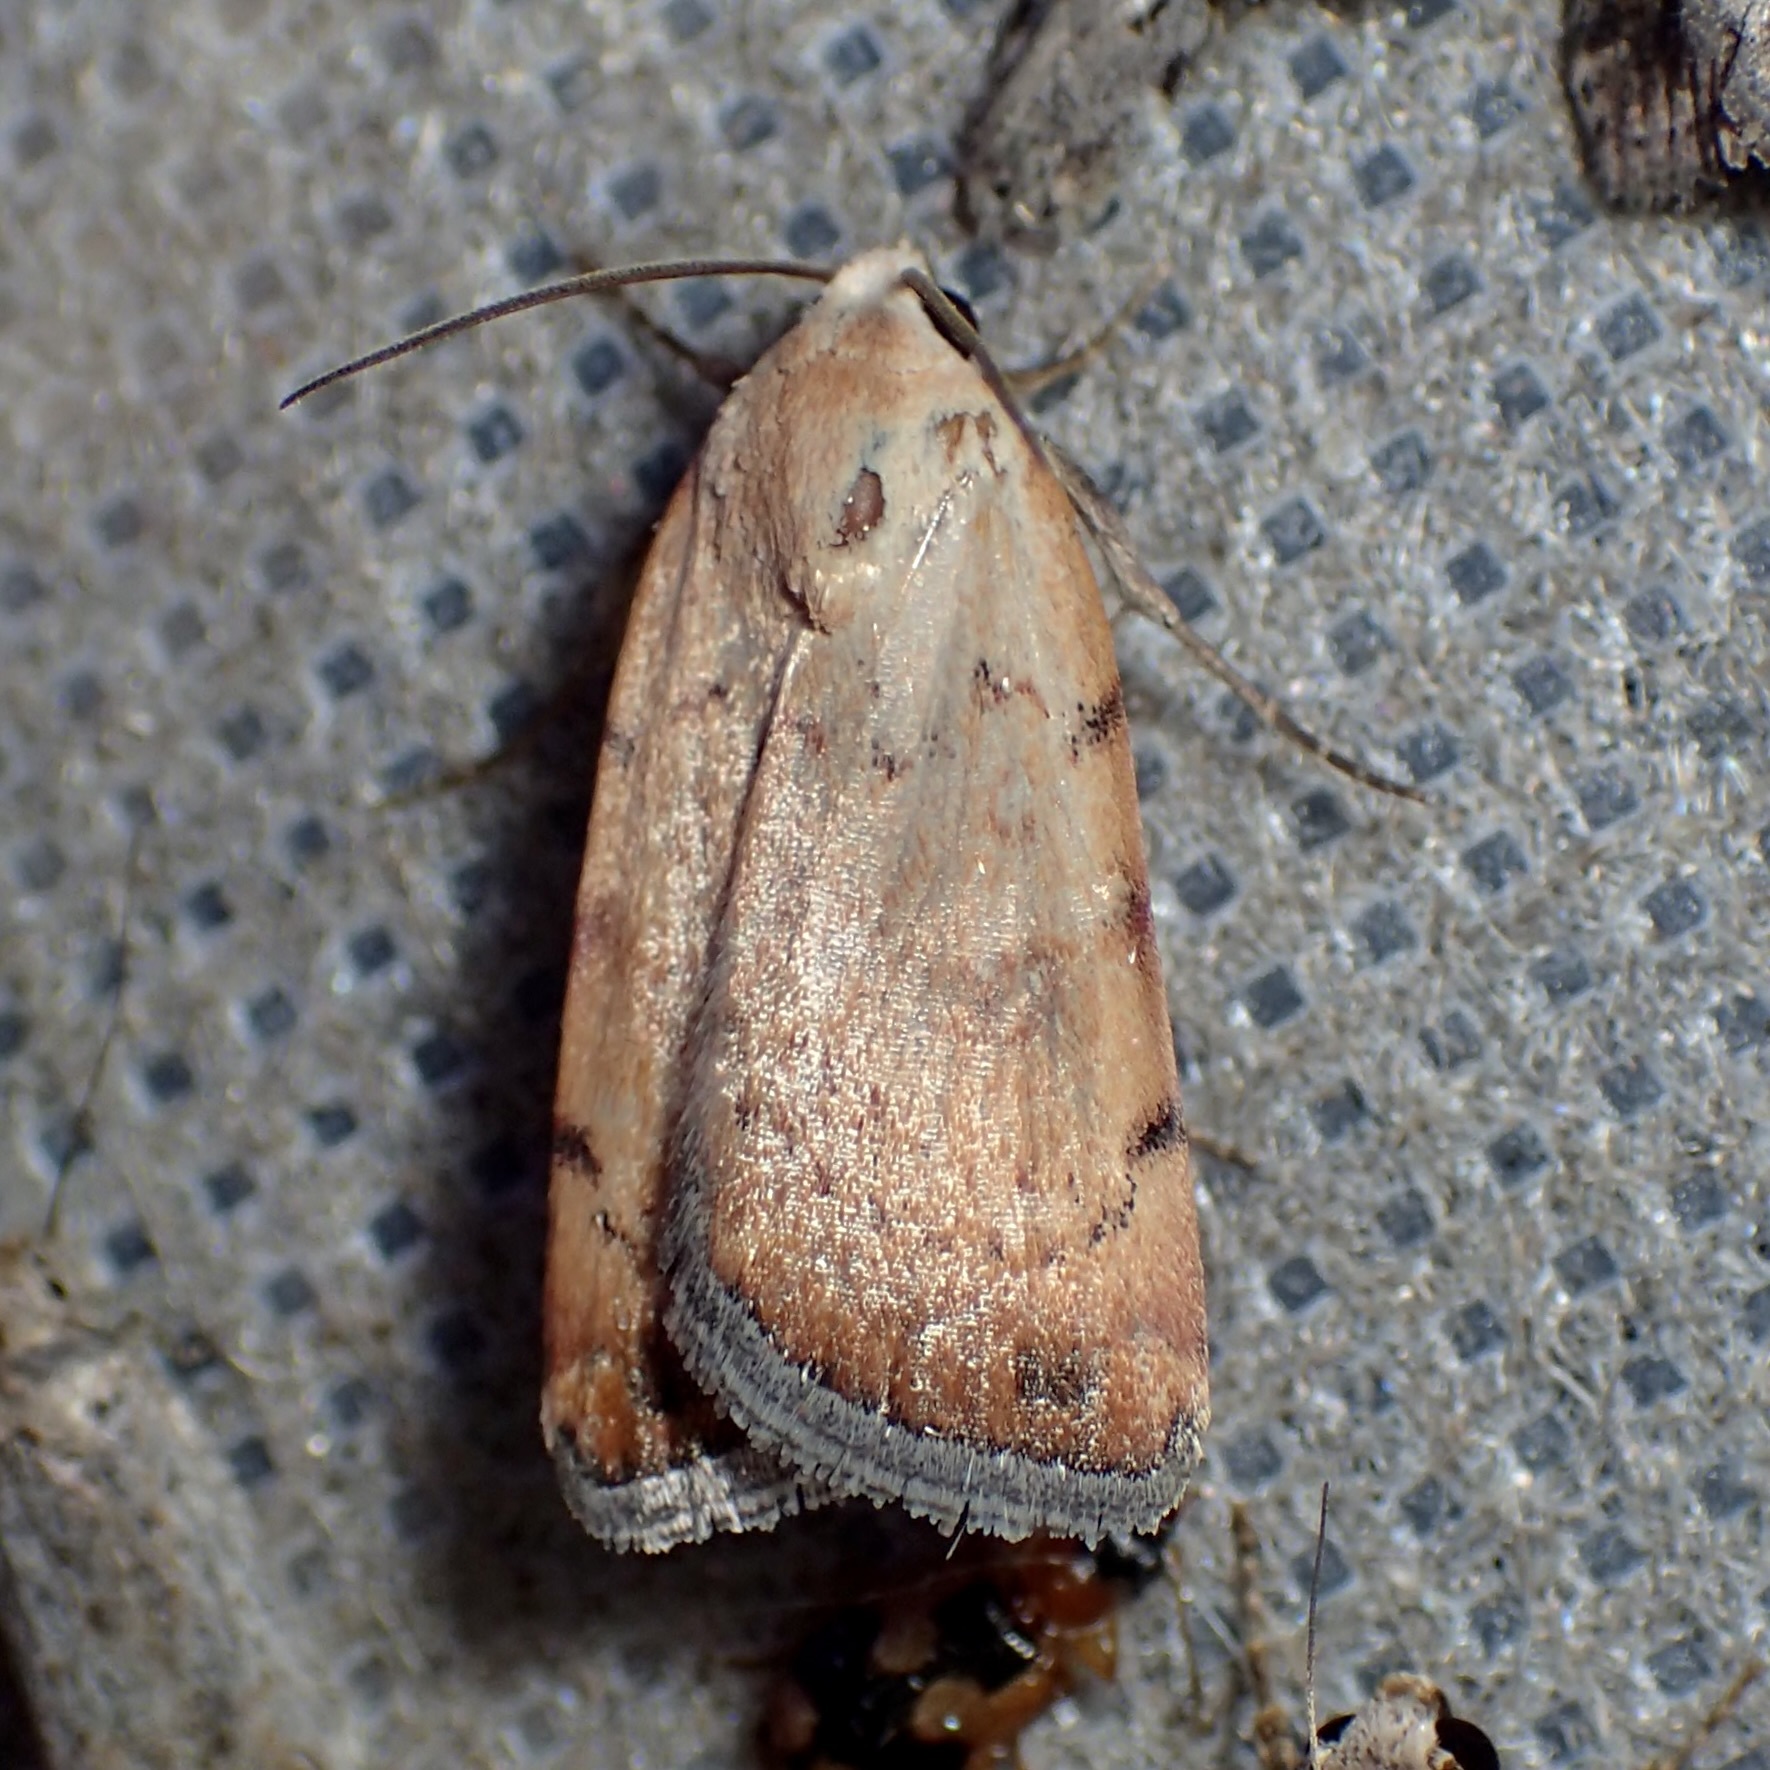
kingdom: Animalia
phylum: Arthropoda
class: Insecta
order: Lepidoptera
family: Noctuidae
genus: Micrathetis
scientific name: Micrathetis triplex
